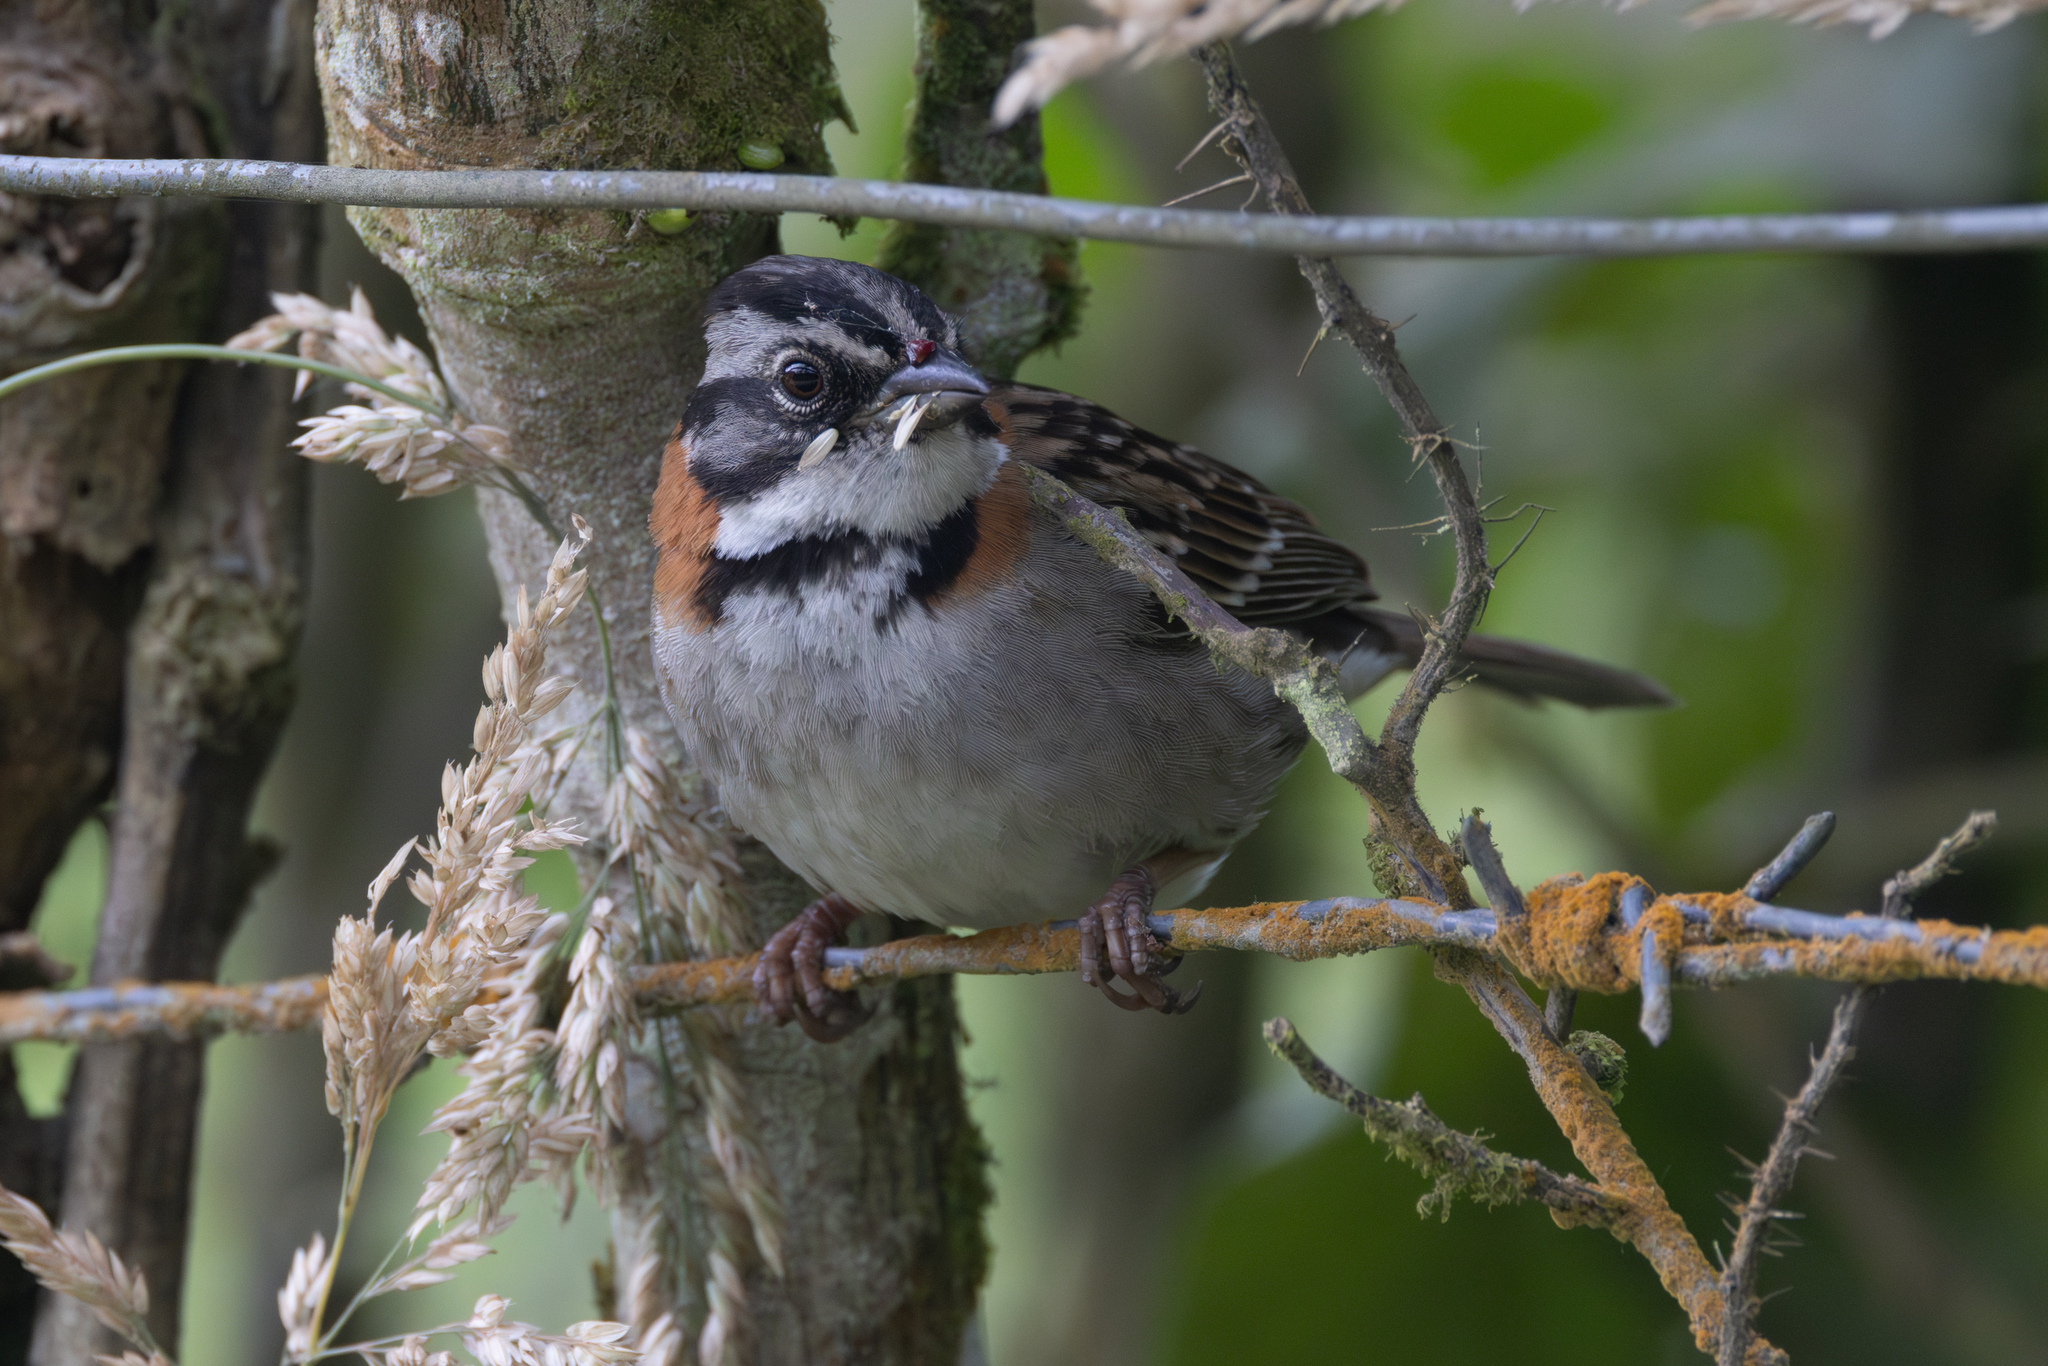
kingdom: Animalia
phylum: Chordata
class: Aves
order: Passeriformes
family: Passerellidae
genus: Zonotrichia
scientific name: Zonotrichia capensis
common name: Rufous-collared sparrow
